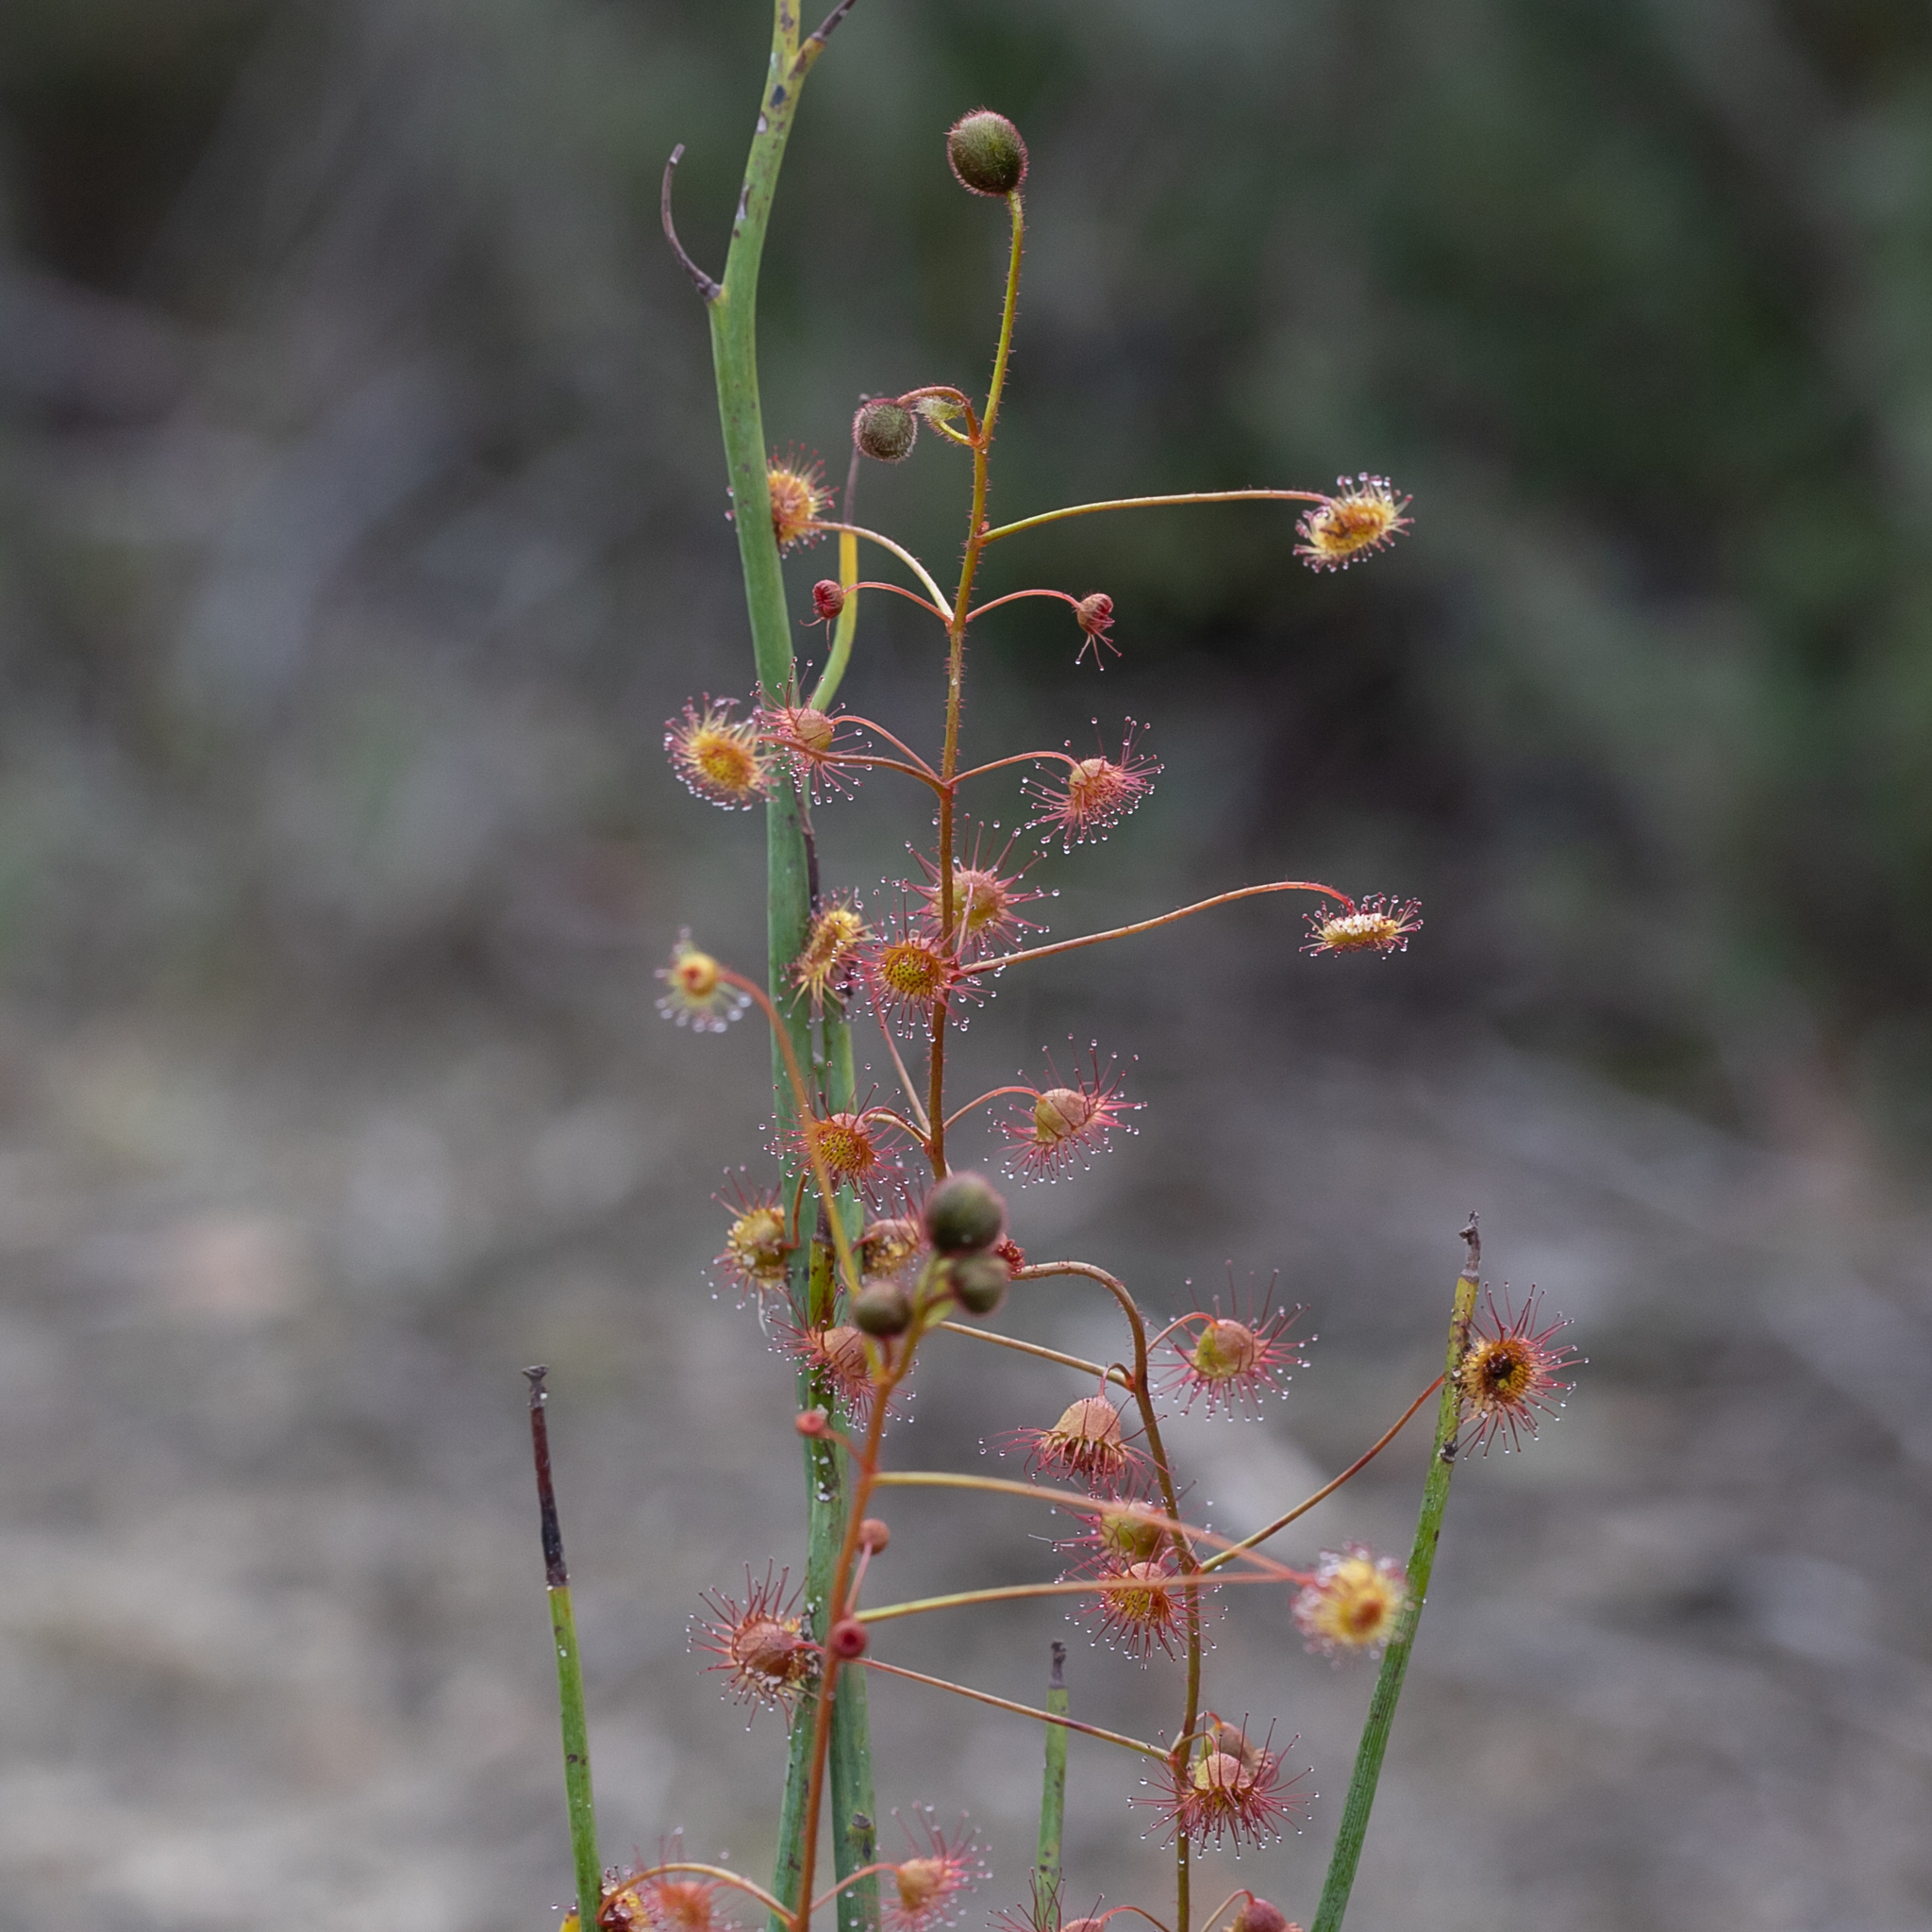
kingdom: Plantae
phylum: Tracheophyta
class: Magnoliopsida
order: Caryophyllales
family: Droseraceae
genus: Drosera
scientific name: Drosera planchonii
